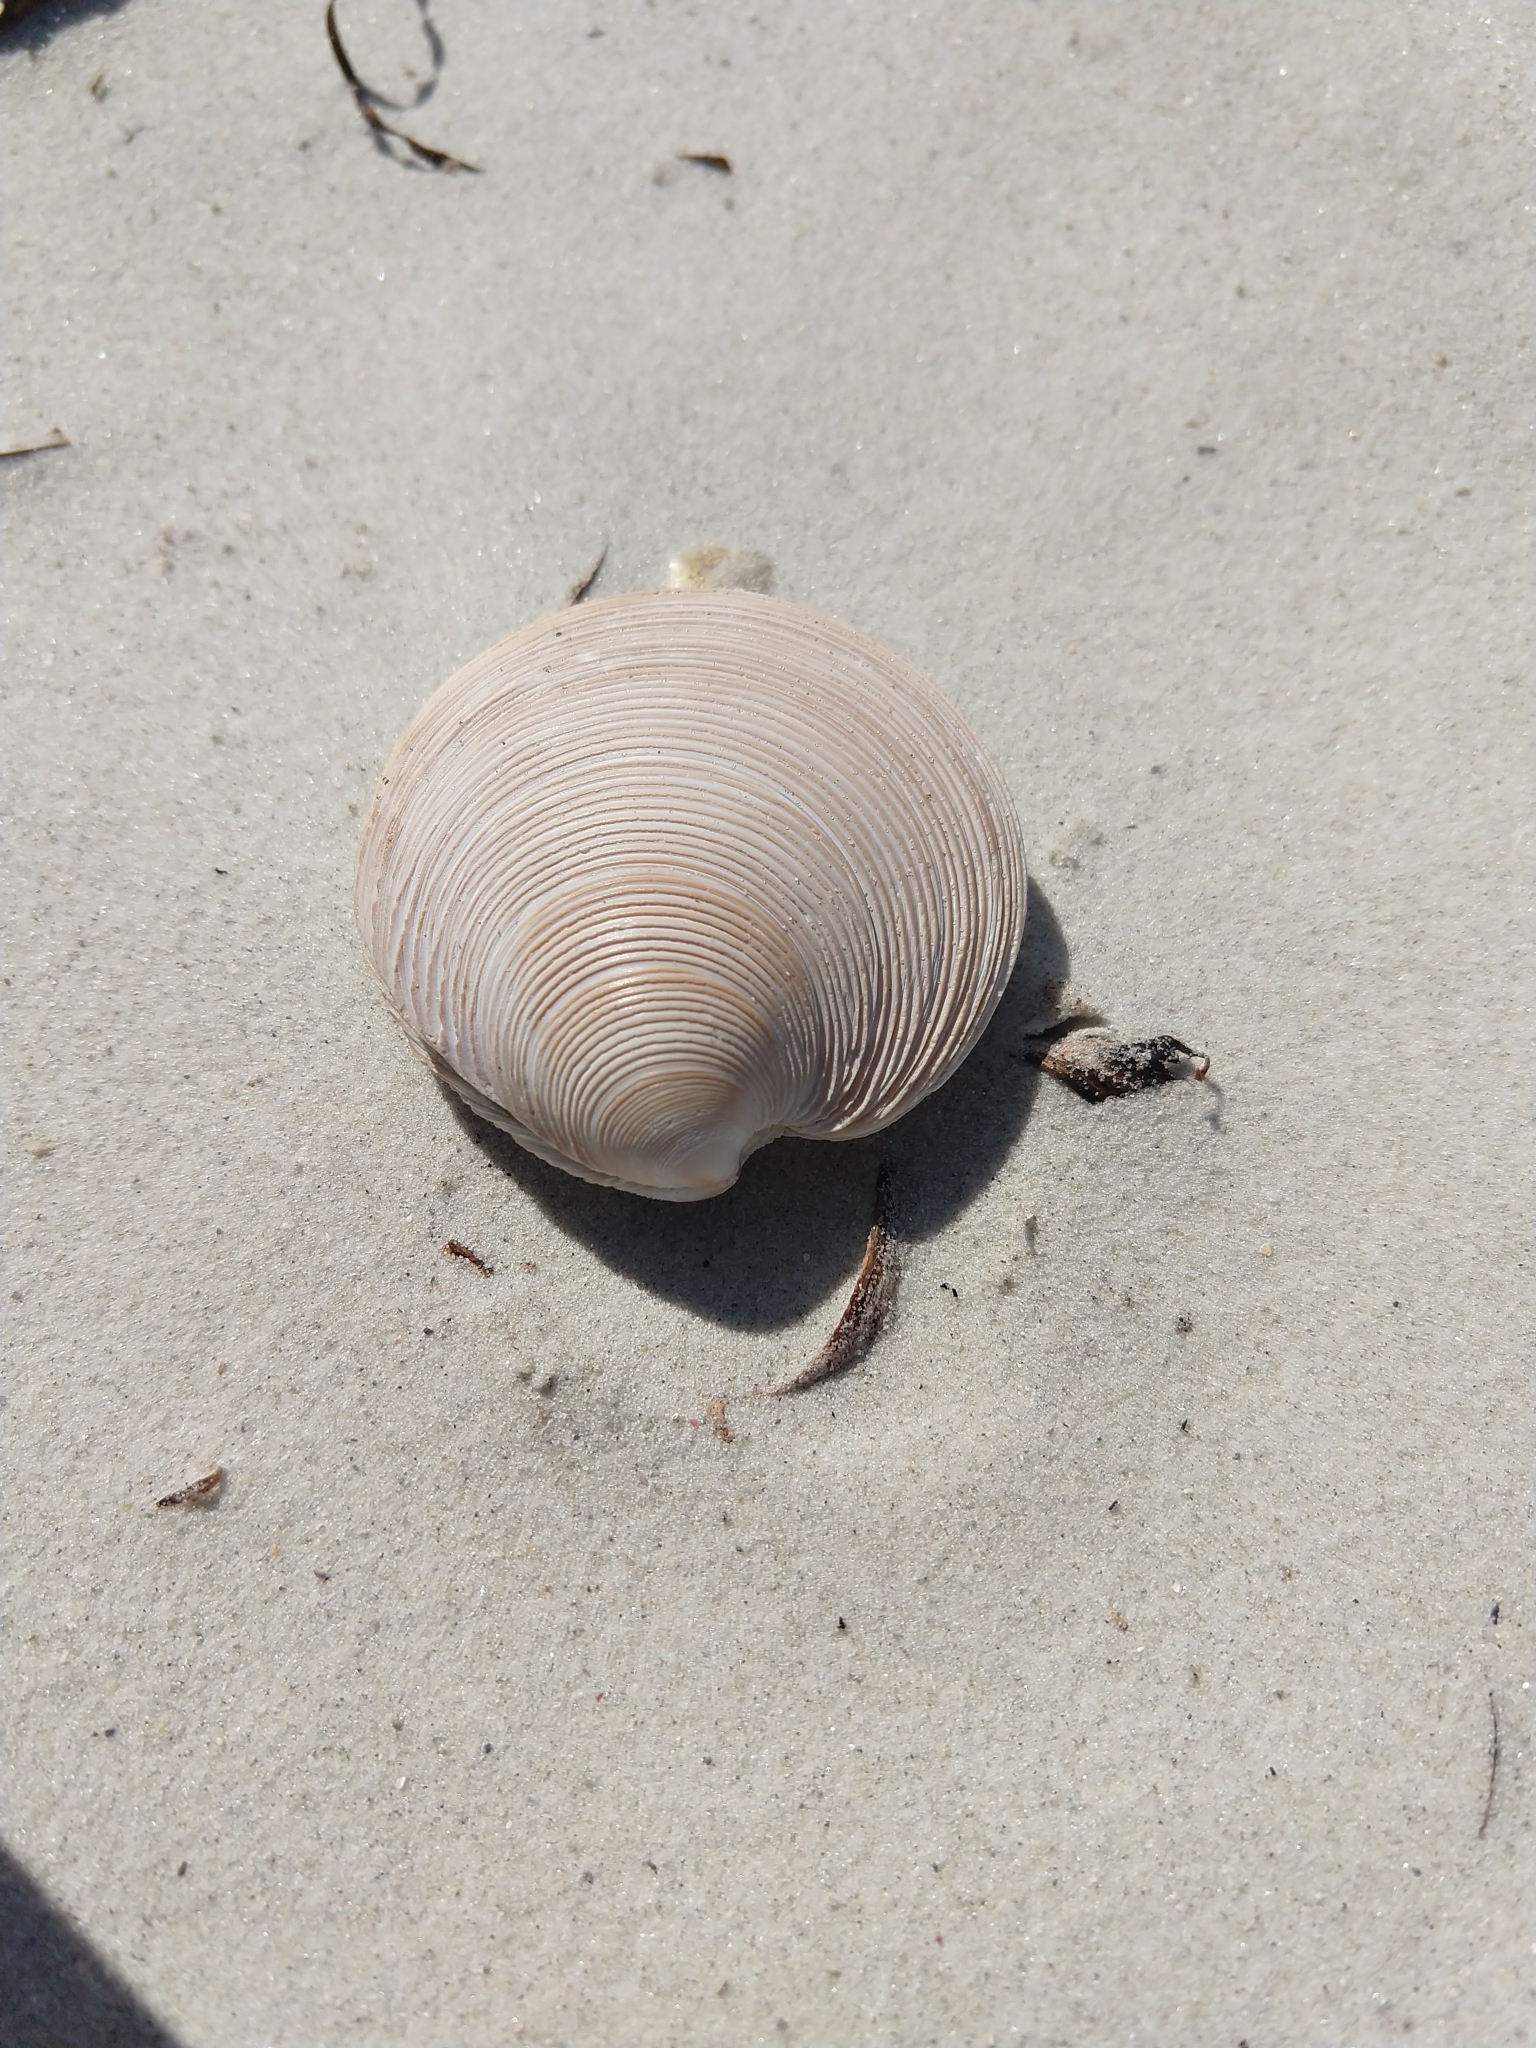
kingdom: Animalia
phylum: Mollusca
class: Bivalvia
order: Venerida
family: Veneridae
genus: Dosinia
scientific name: Dosinia anus
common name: Old-woman dosinia
